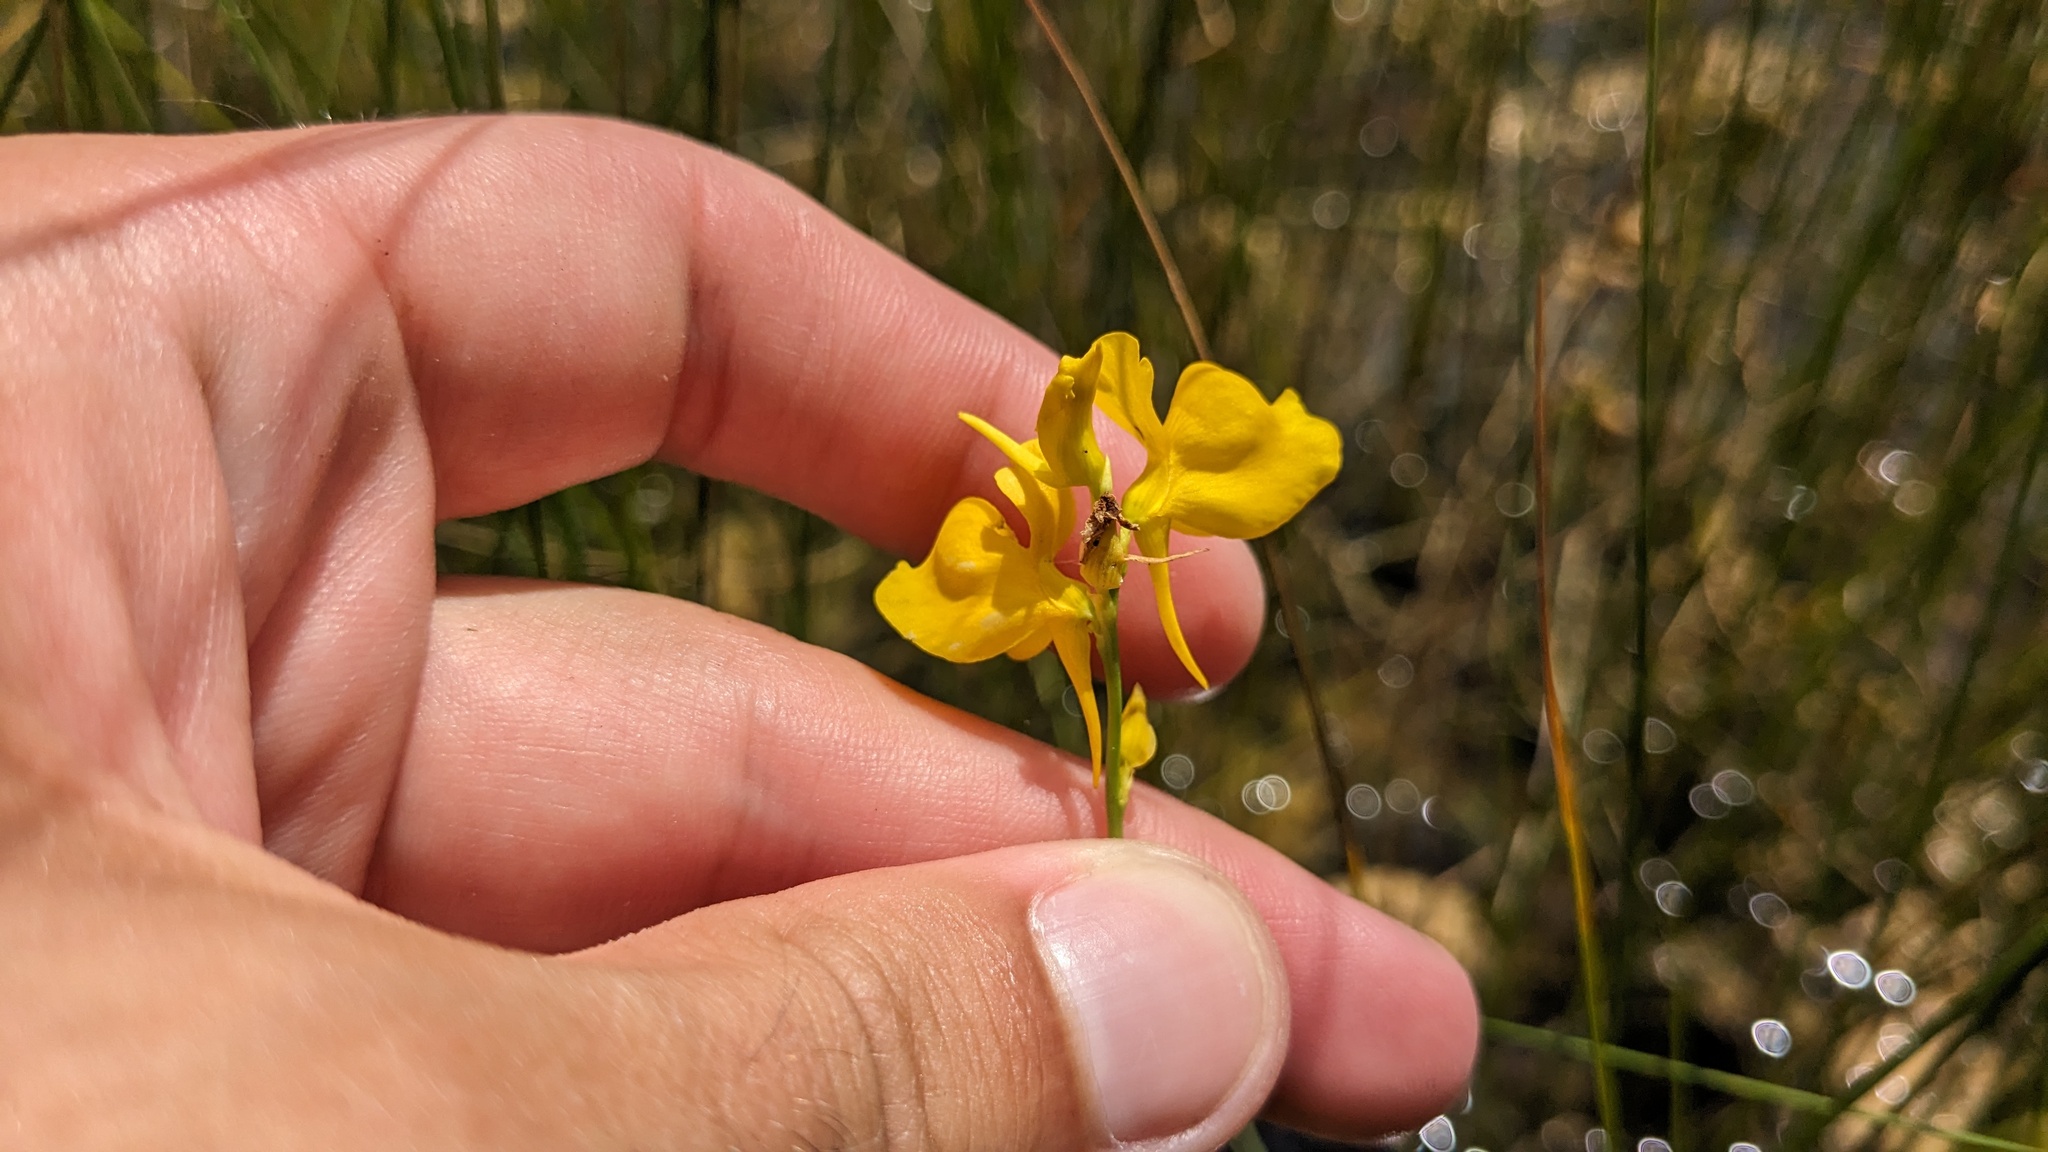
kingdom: Plantae
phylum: Tracheophyta
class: Magnoliopsida
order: Lamiales
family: Lentibulariaceae
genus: Utricularia
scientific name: Utricularia cornuta
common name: Horned bladderwort
